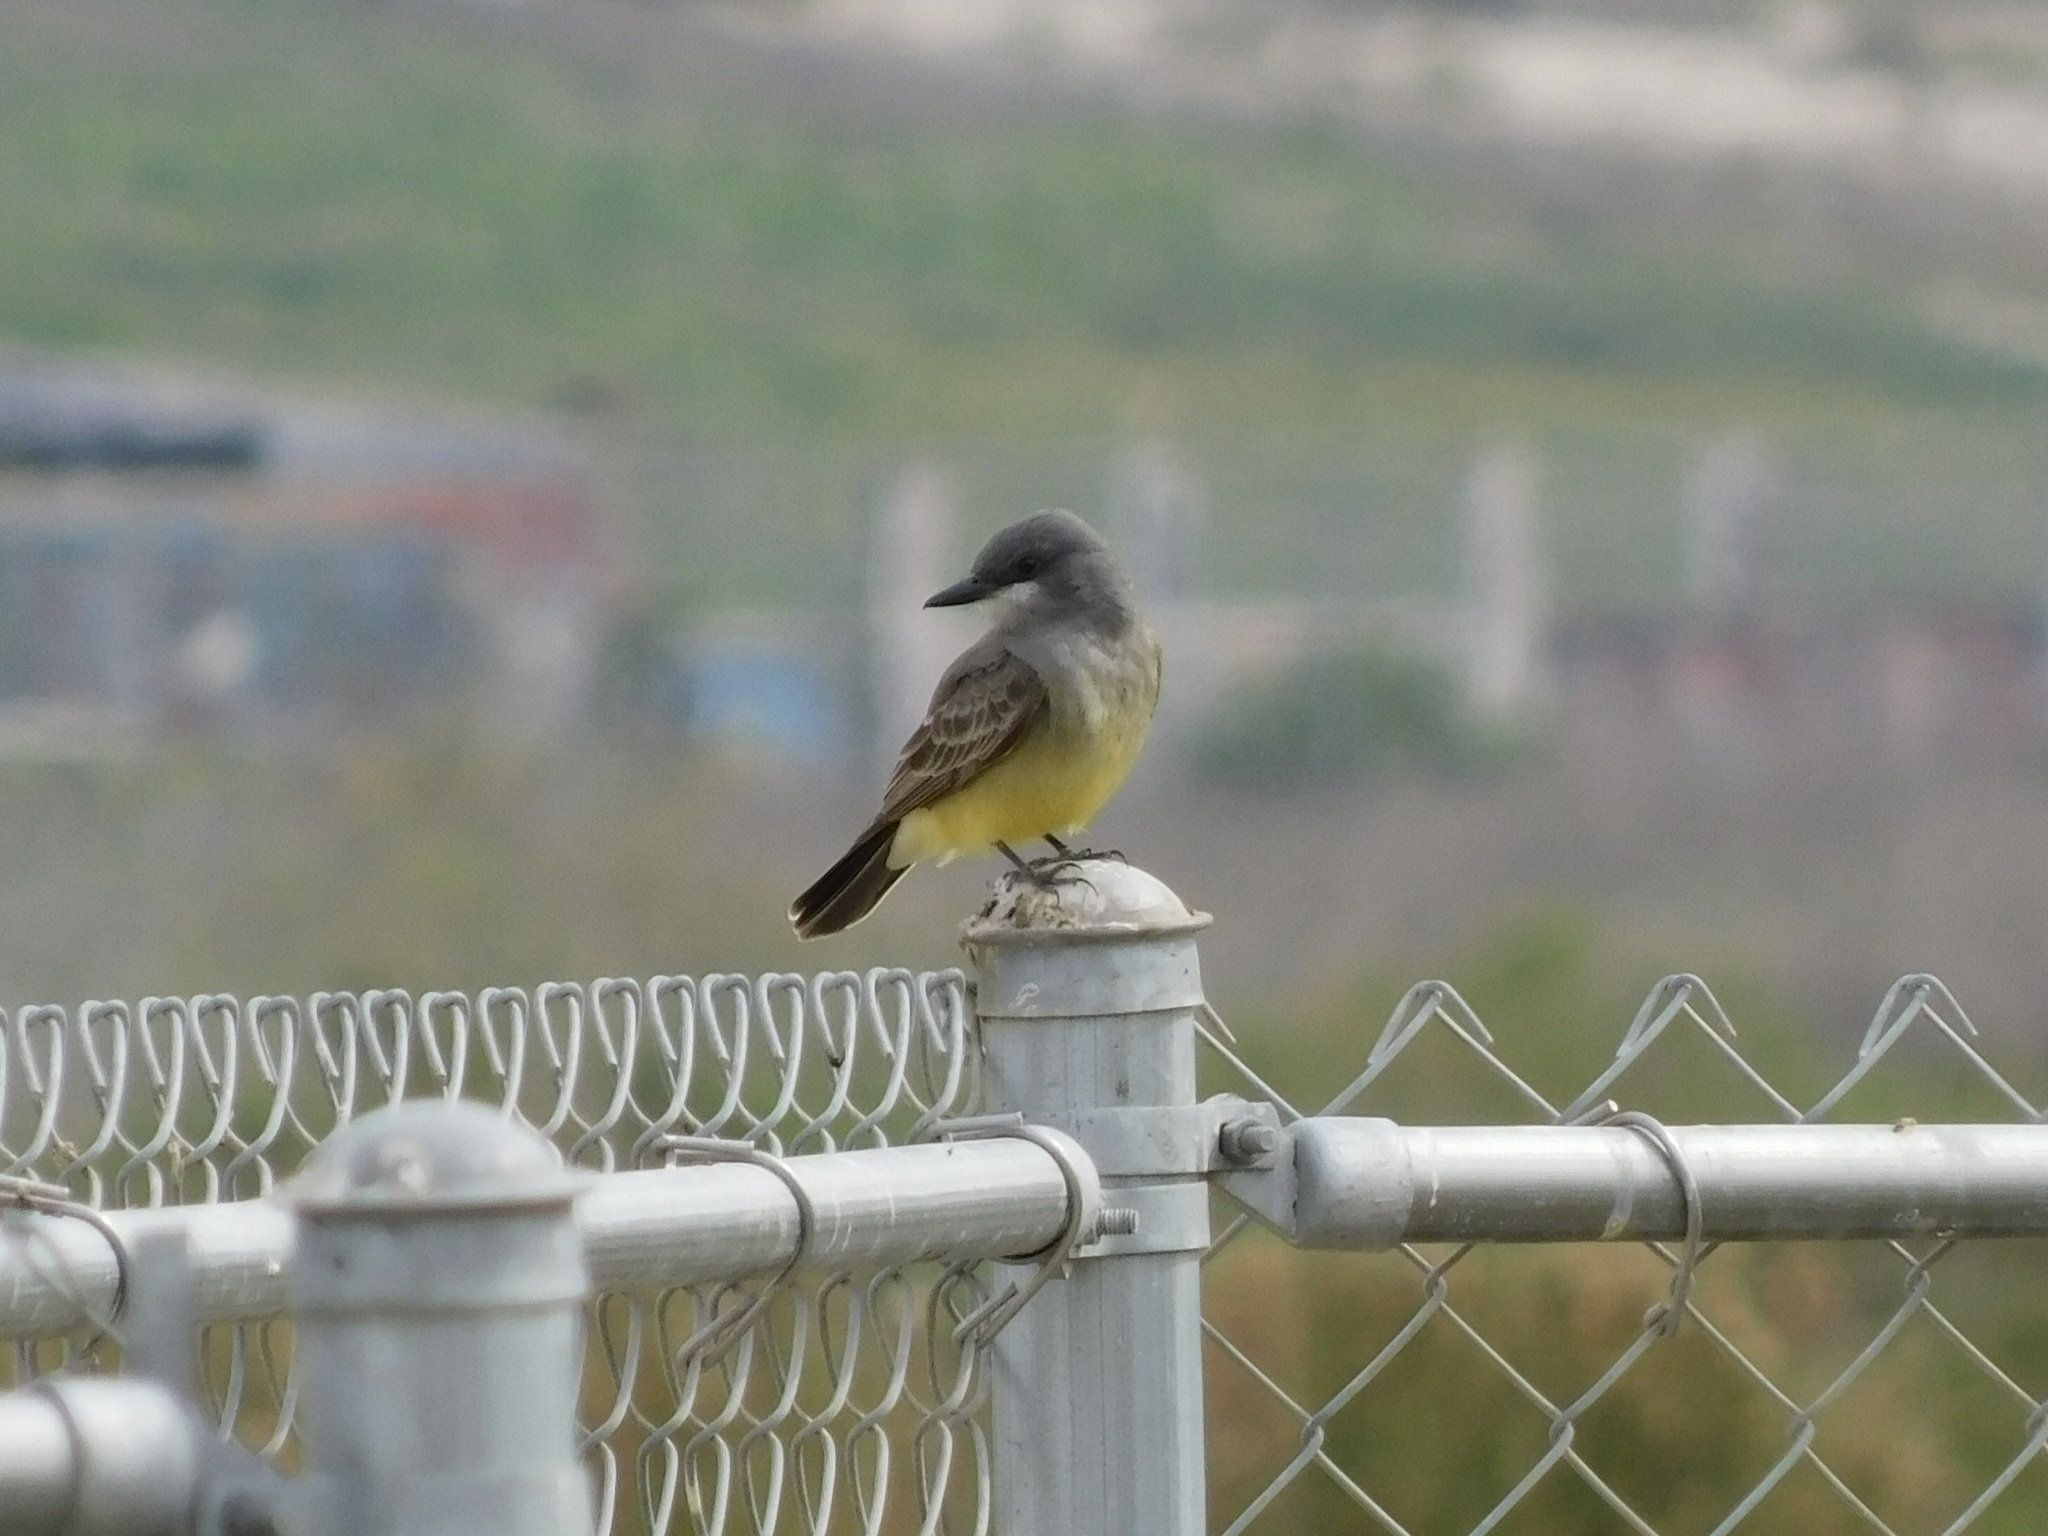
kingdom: Animalia
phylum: Chordata
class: Aves
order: Passeriformes
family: Tyrannidae
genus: Tyrannus
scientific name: Tyrannus vociferans
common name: Cassin's kingbird
